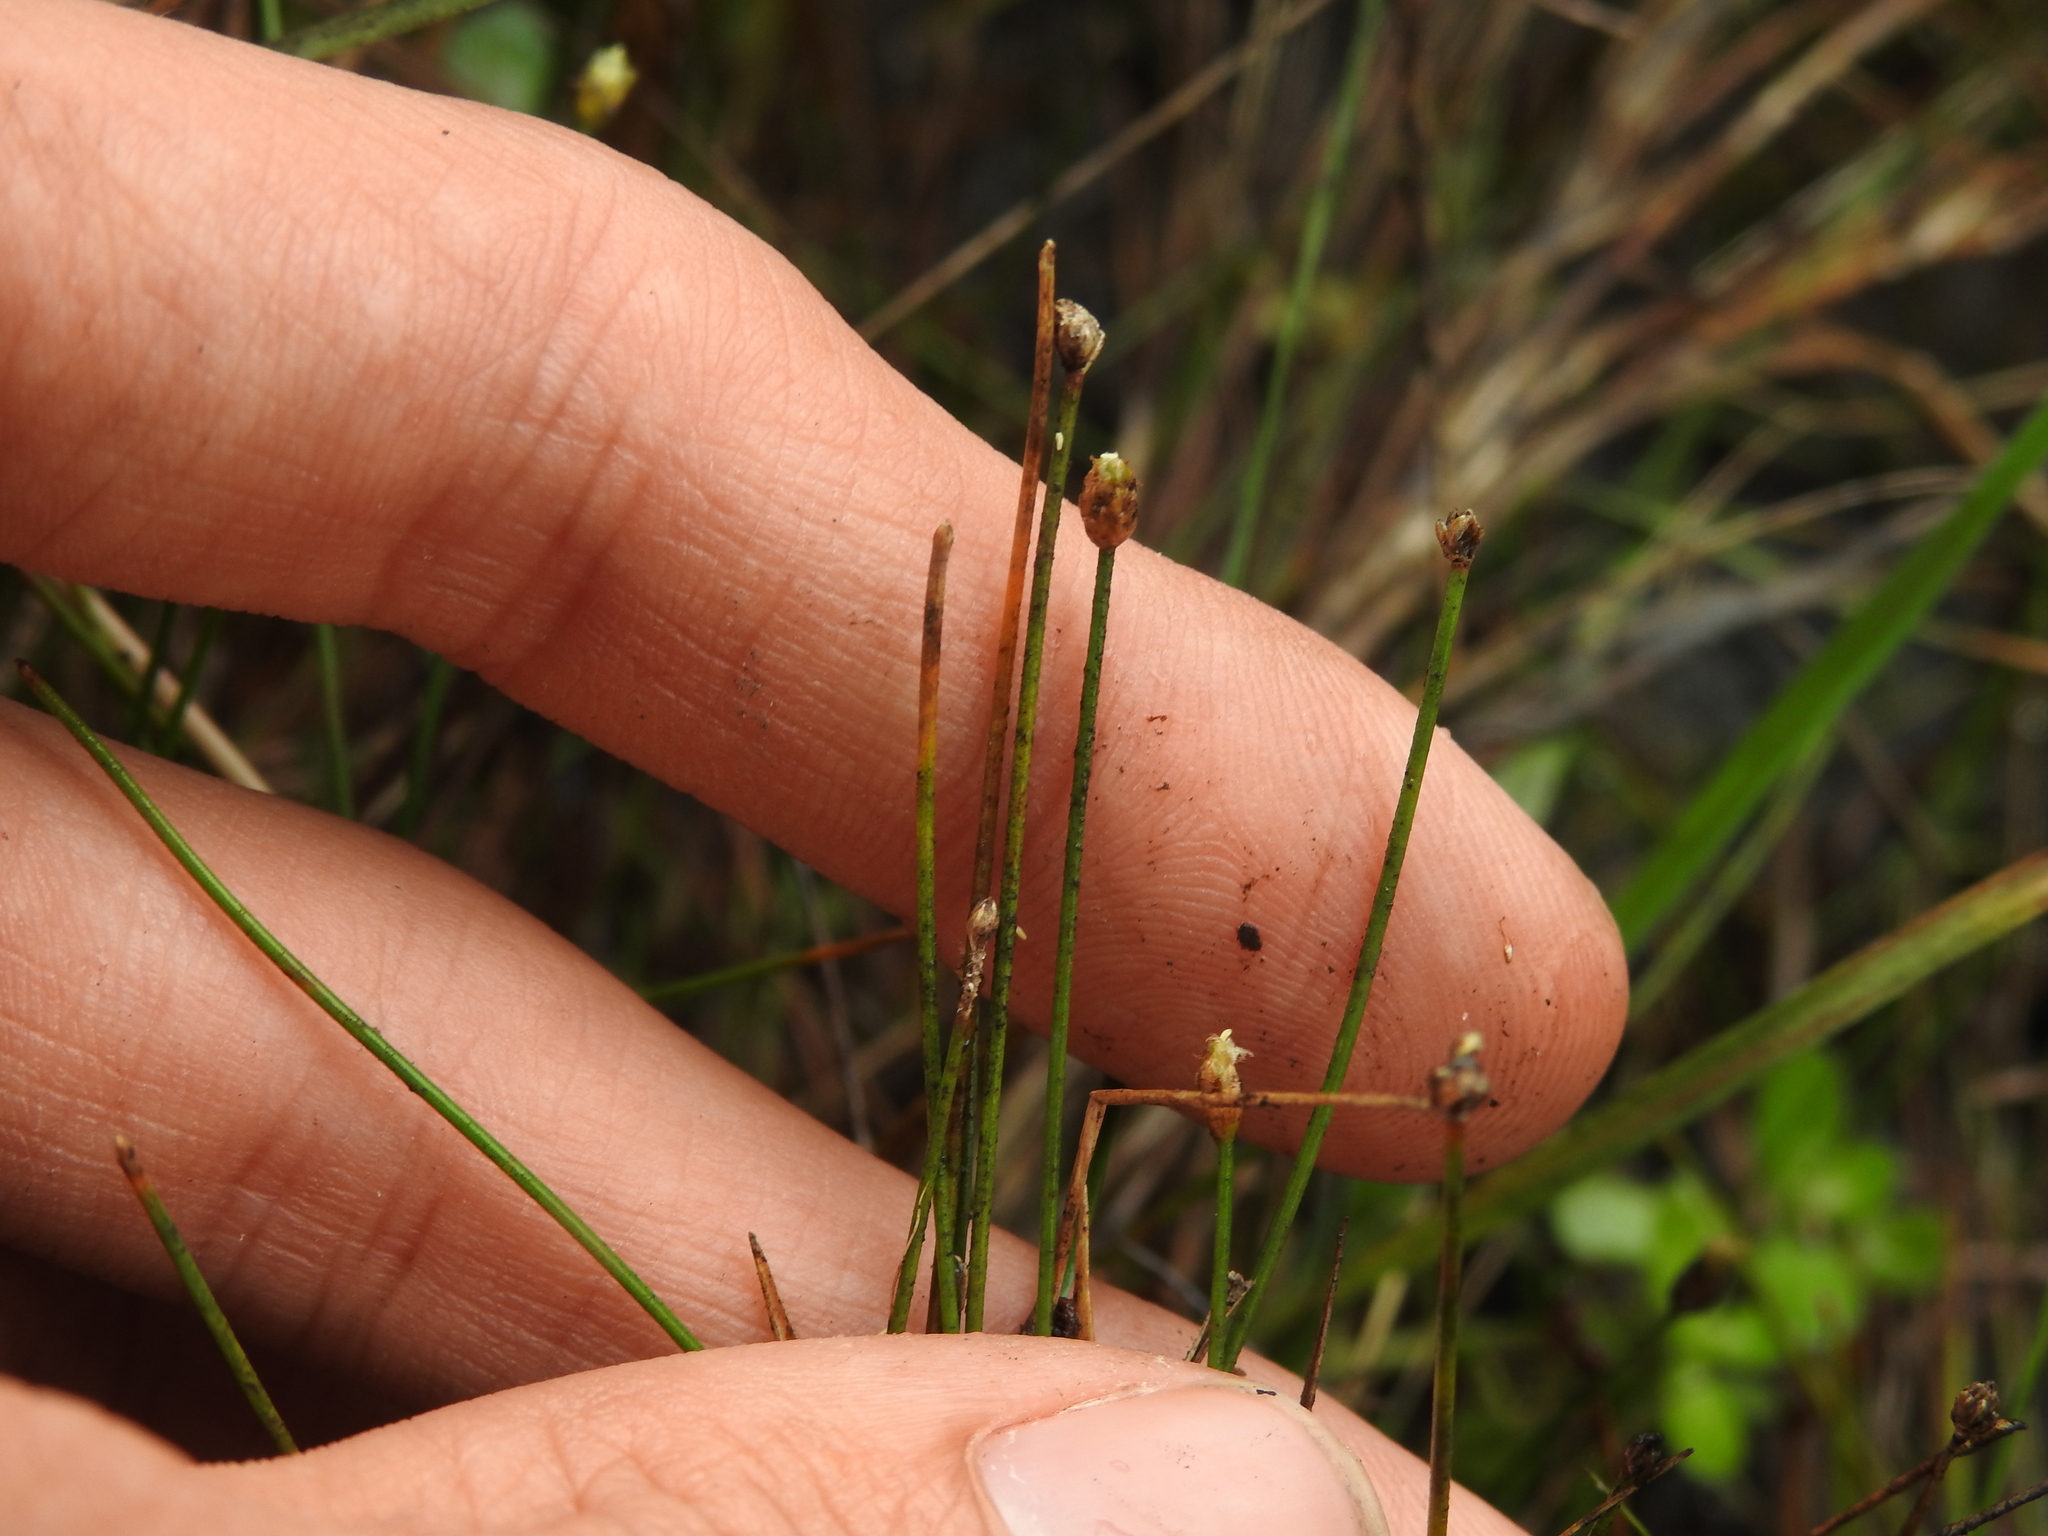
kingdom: Plantae
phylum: Tracheophyta
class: Liliopsida
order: Poales
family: Cyperaceae
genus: Eleocharis
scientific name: Eleocharis geniculata
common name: Canada spikesedge
